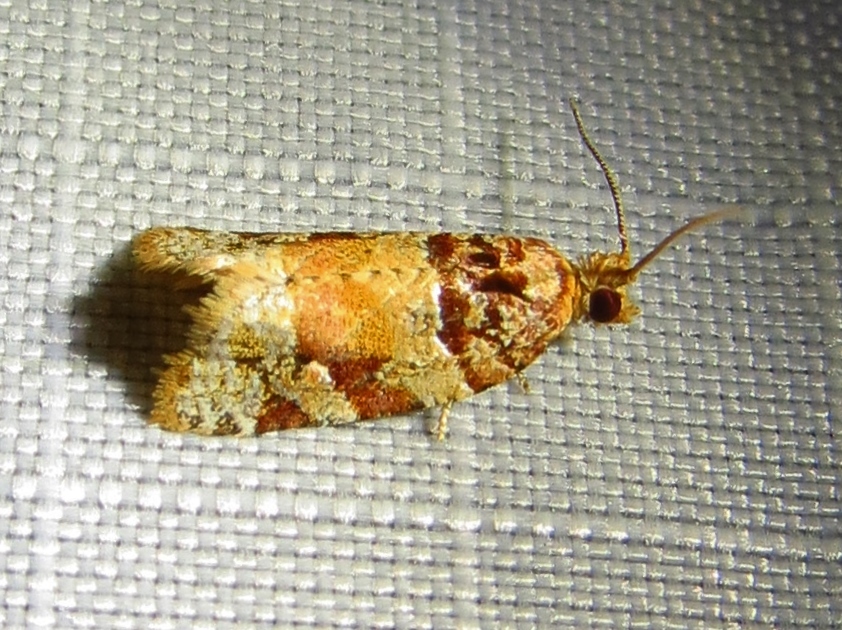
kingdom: Animalia
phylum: Arthropoda
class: Insecta
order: Lepidoptera
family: Tortricidae
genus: Argyrotaenia
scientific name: Argyrotaenia kimballi
